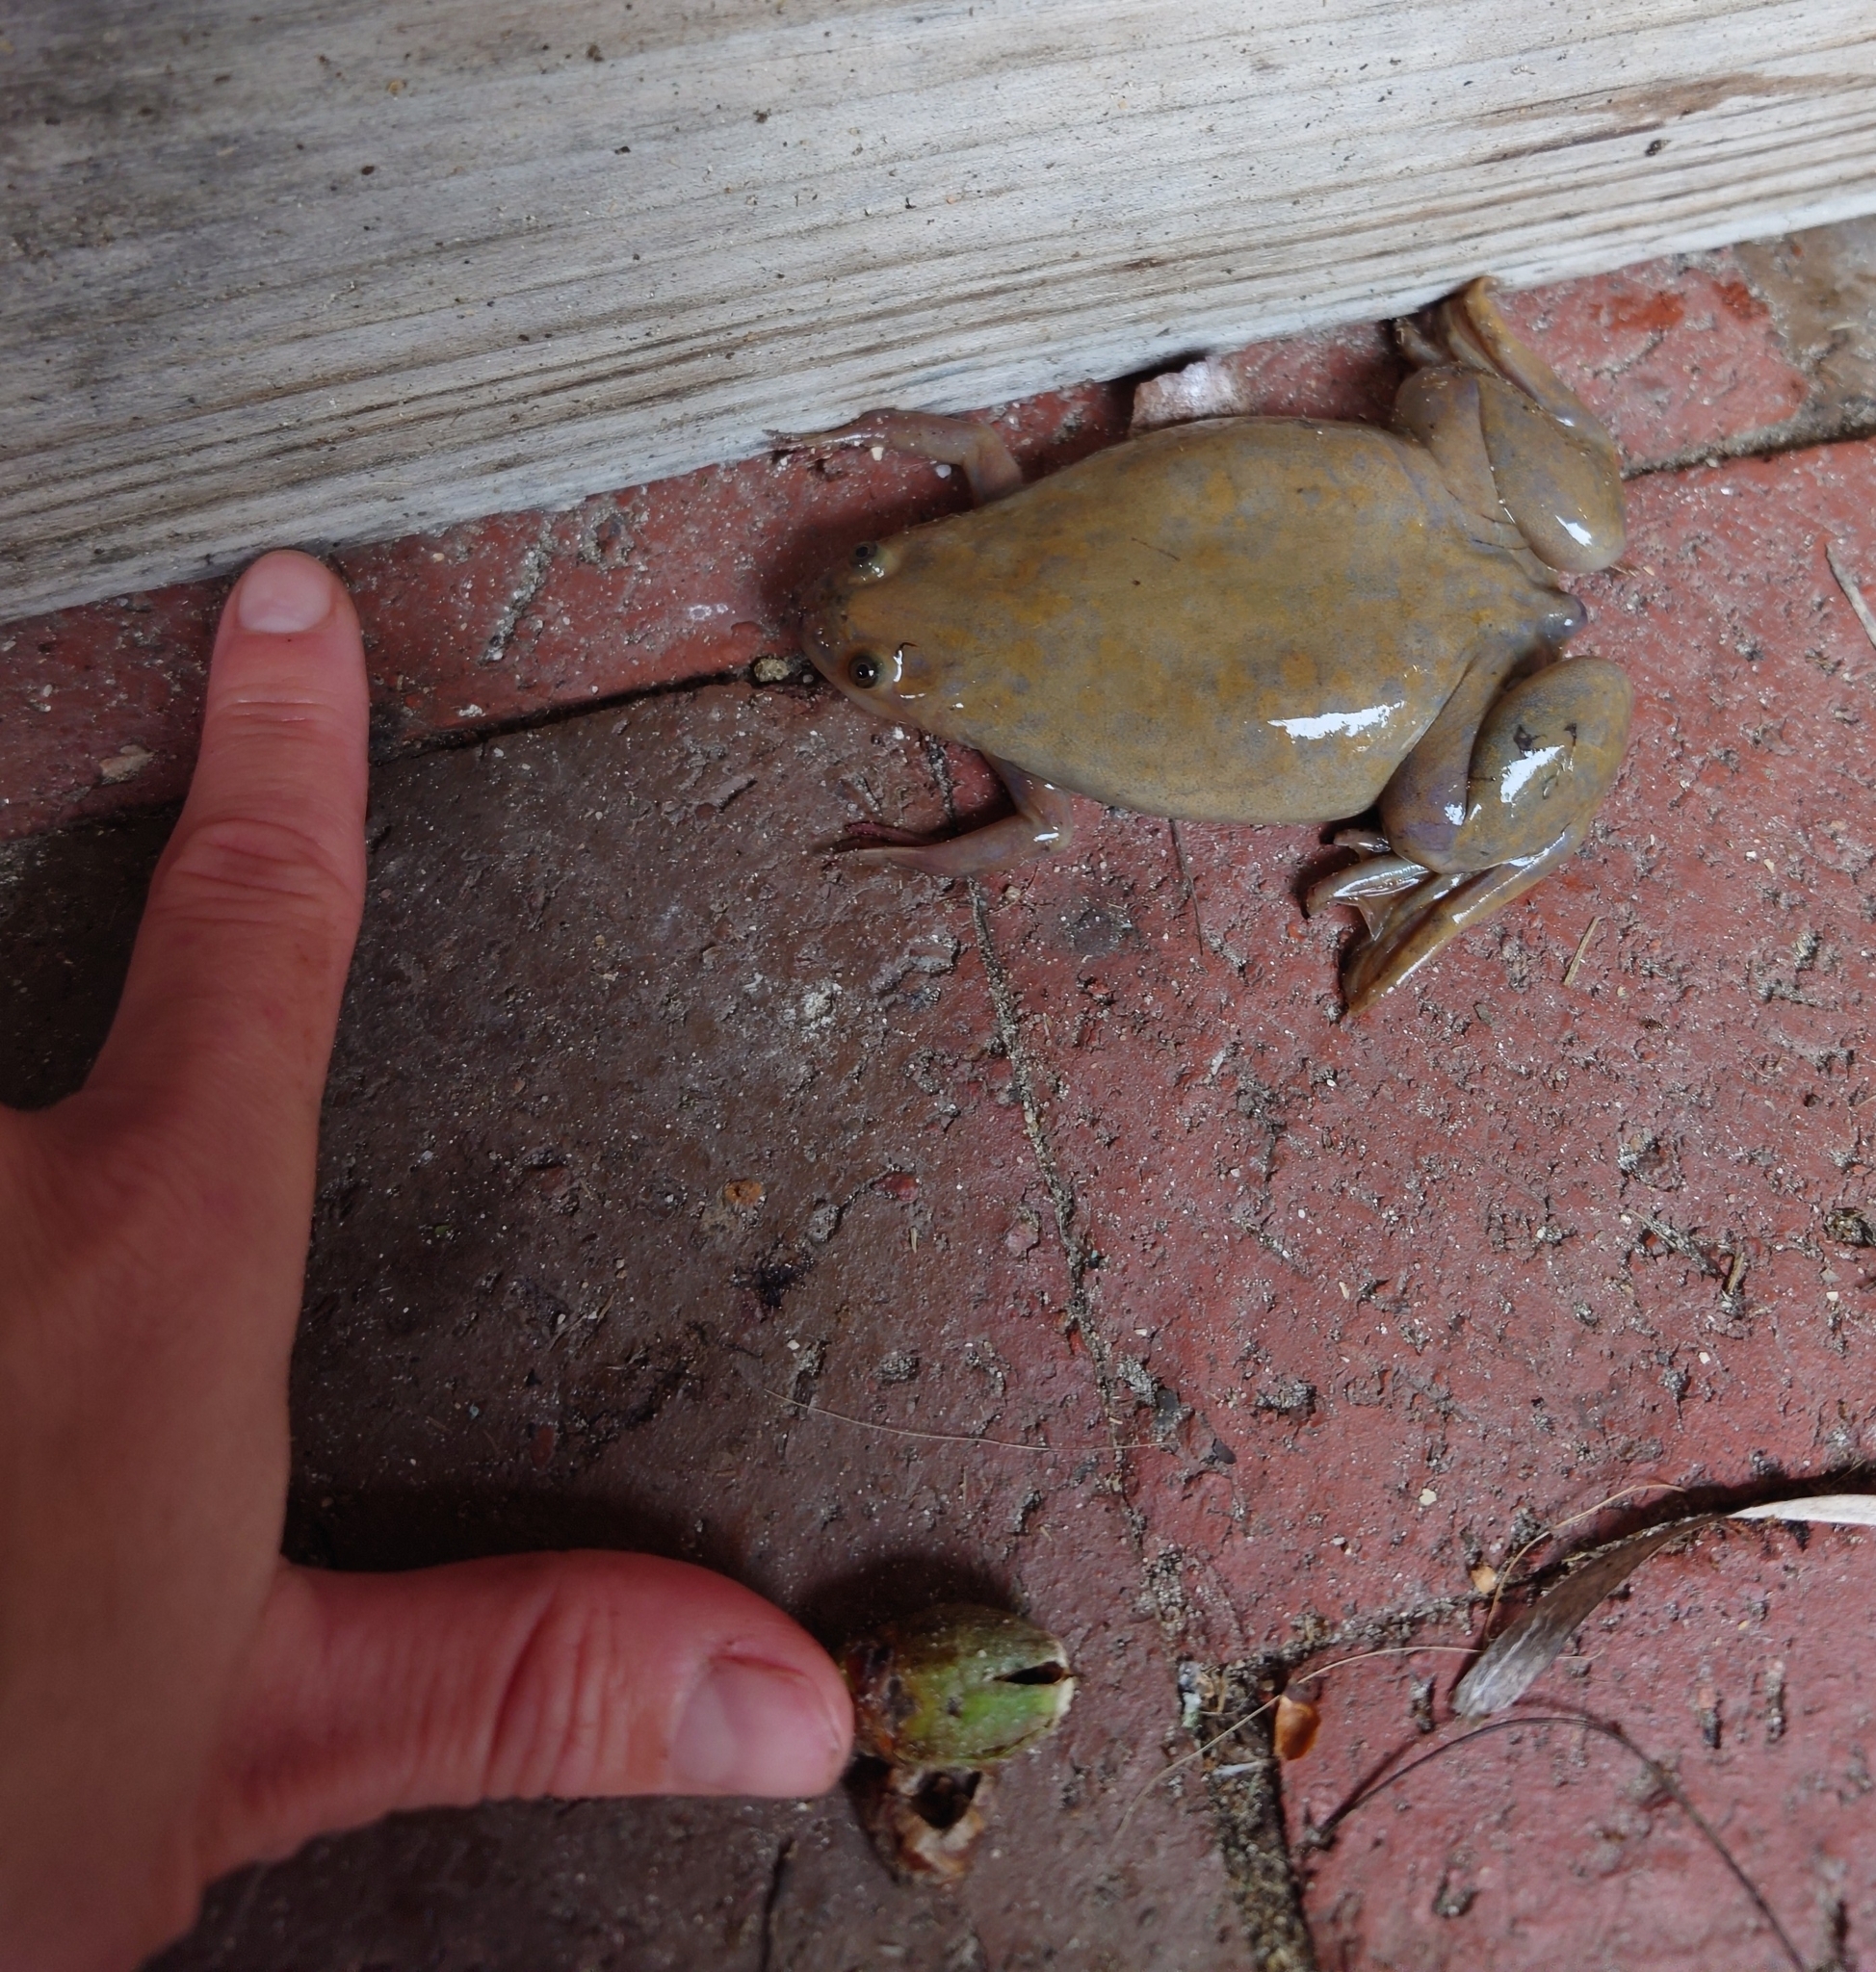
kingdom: Animalia
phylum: Chordata
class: Amphibia
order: Anura
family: Pipidae
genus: Xenopus
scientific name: Xenopus laevis
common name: African clawed frog
